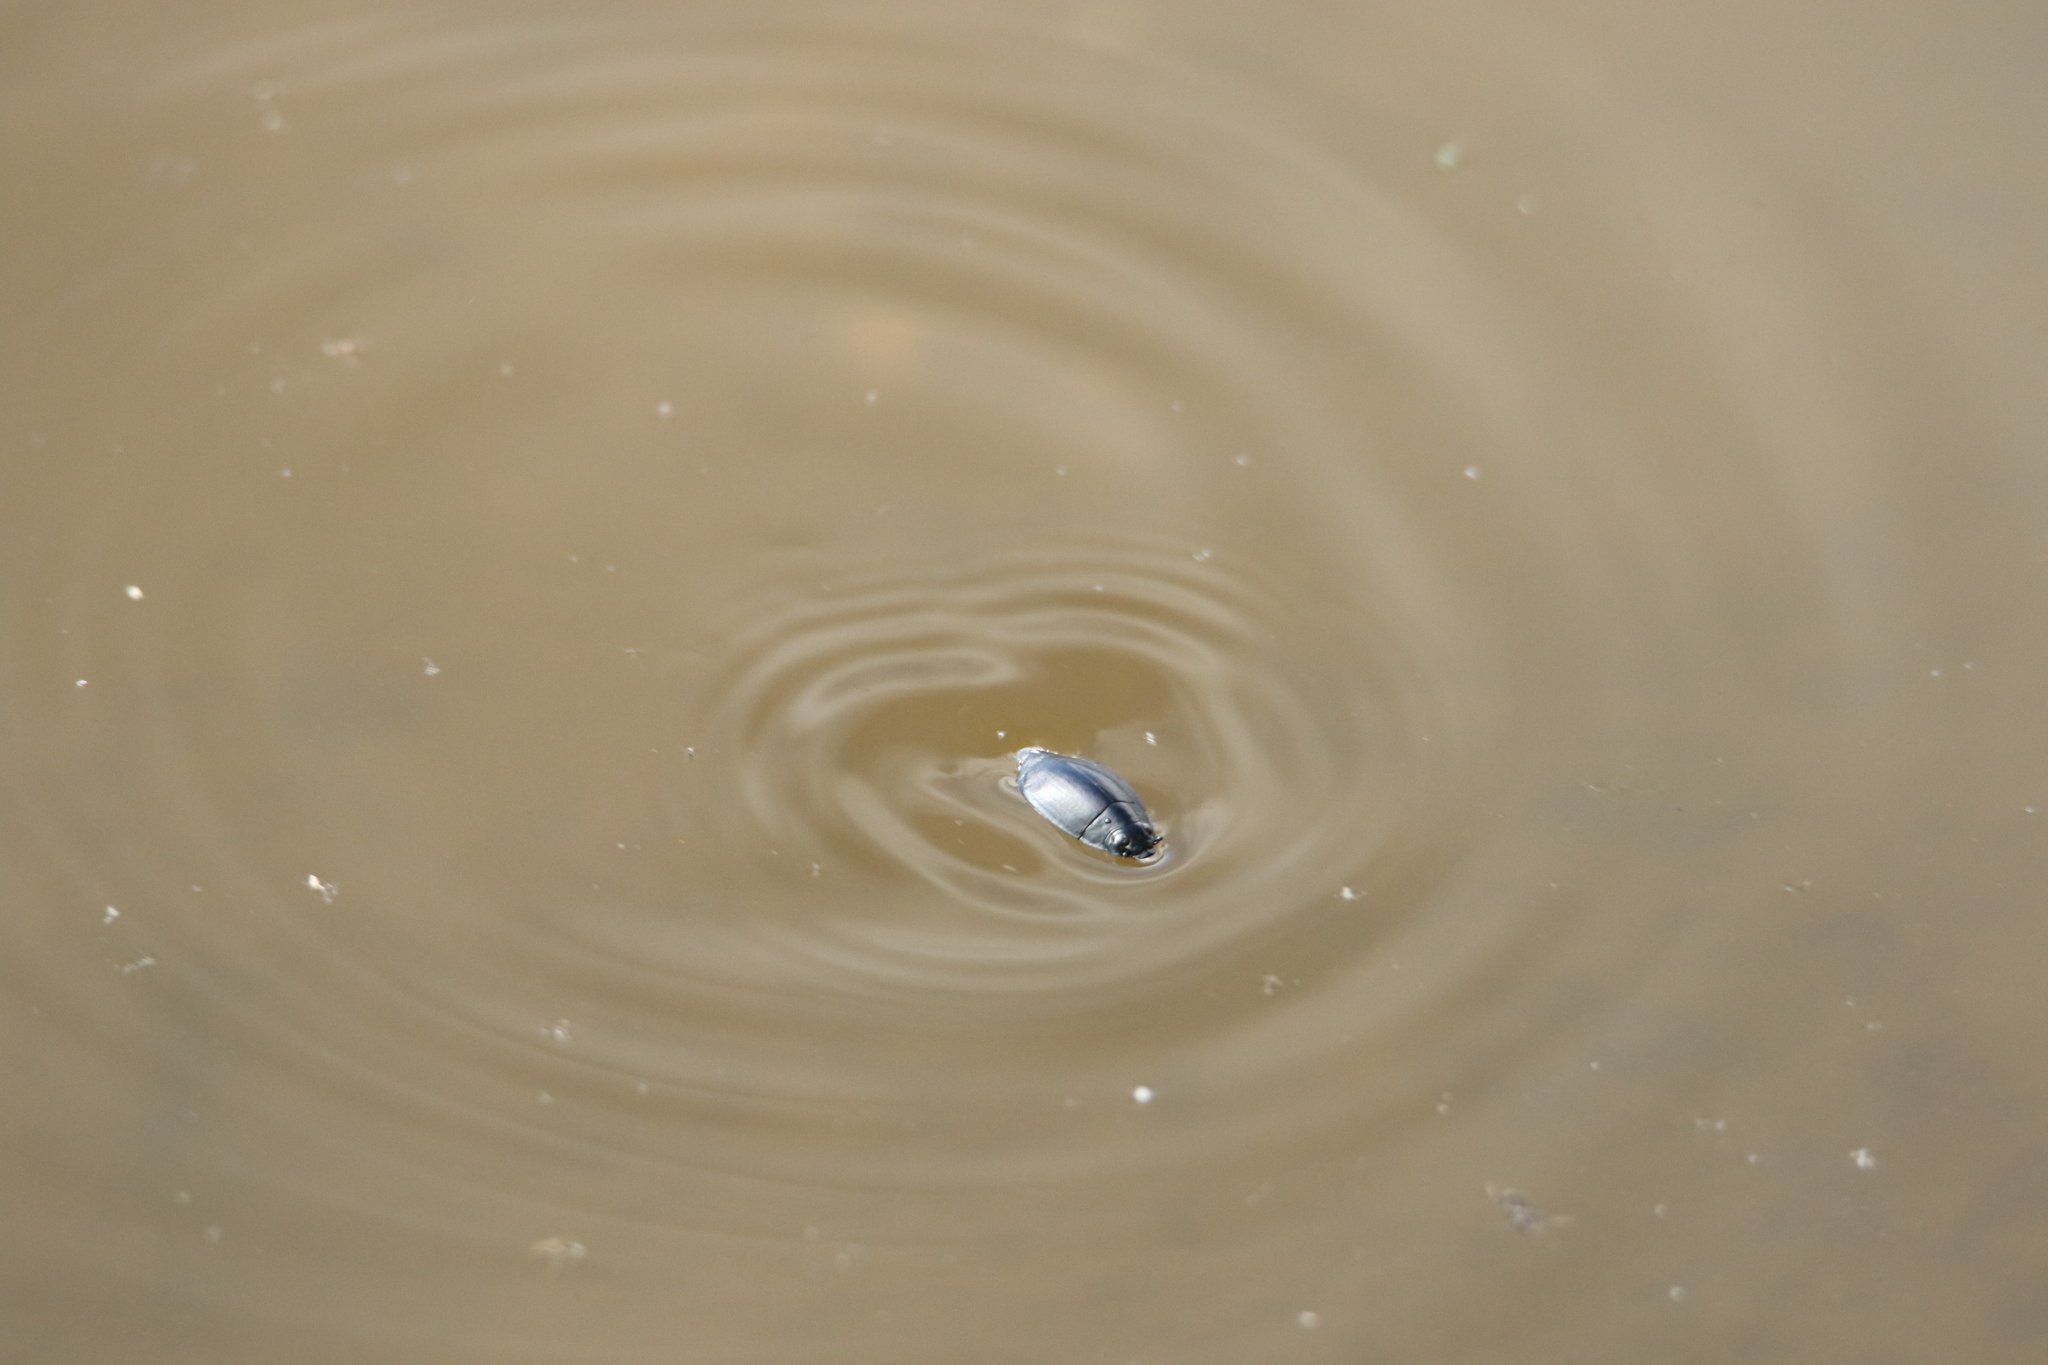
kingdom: Animalia
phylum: Arthropoda
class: Insecta
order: Coleoptera
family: Gyrinidae
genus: Dineutus
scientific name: Dineutus
